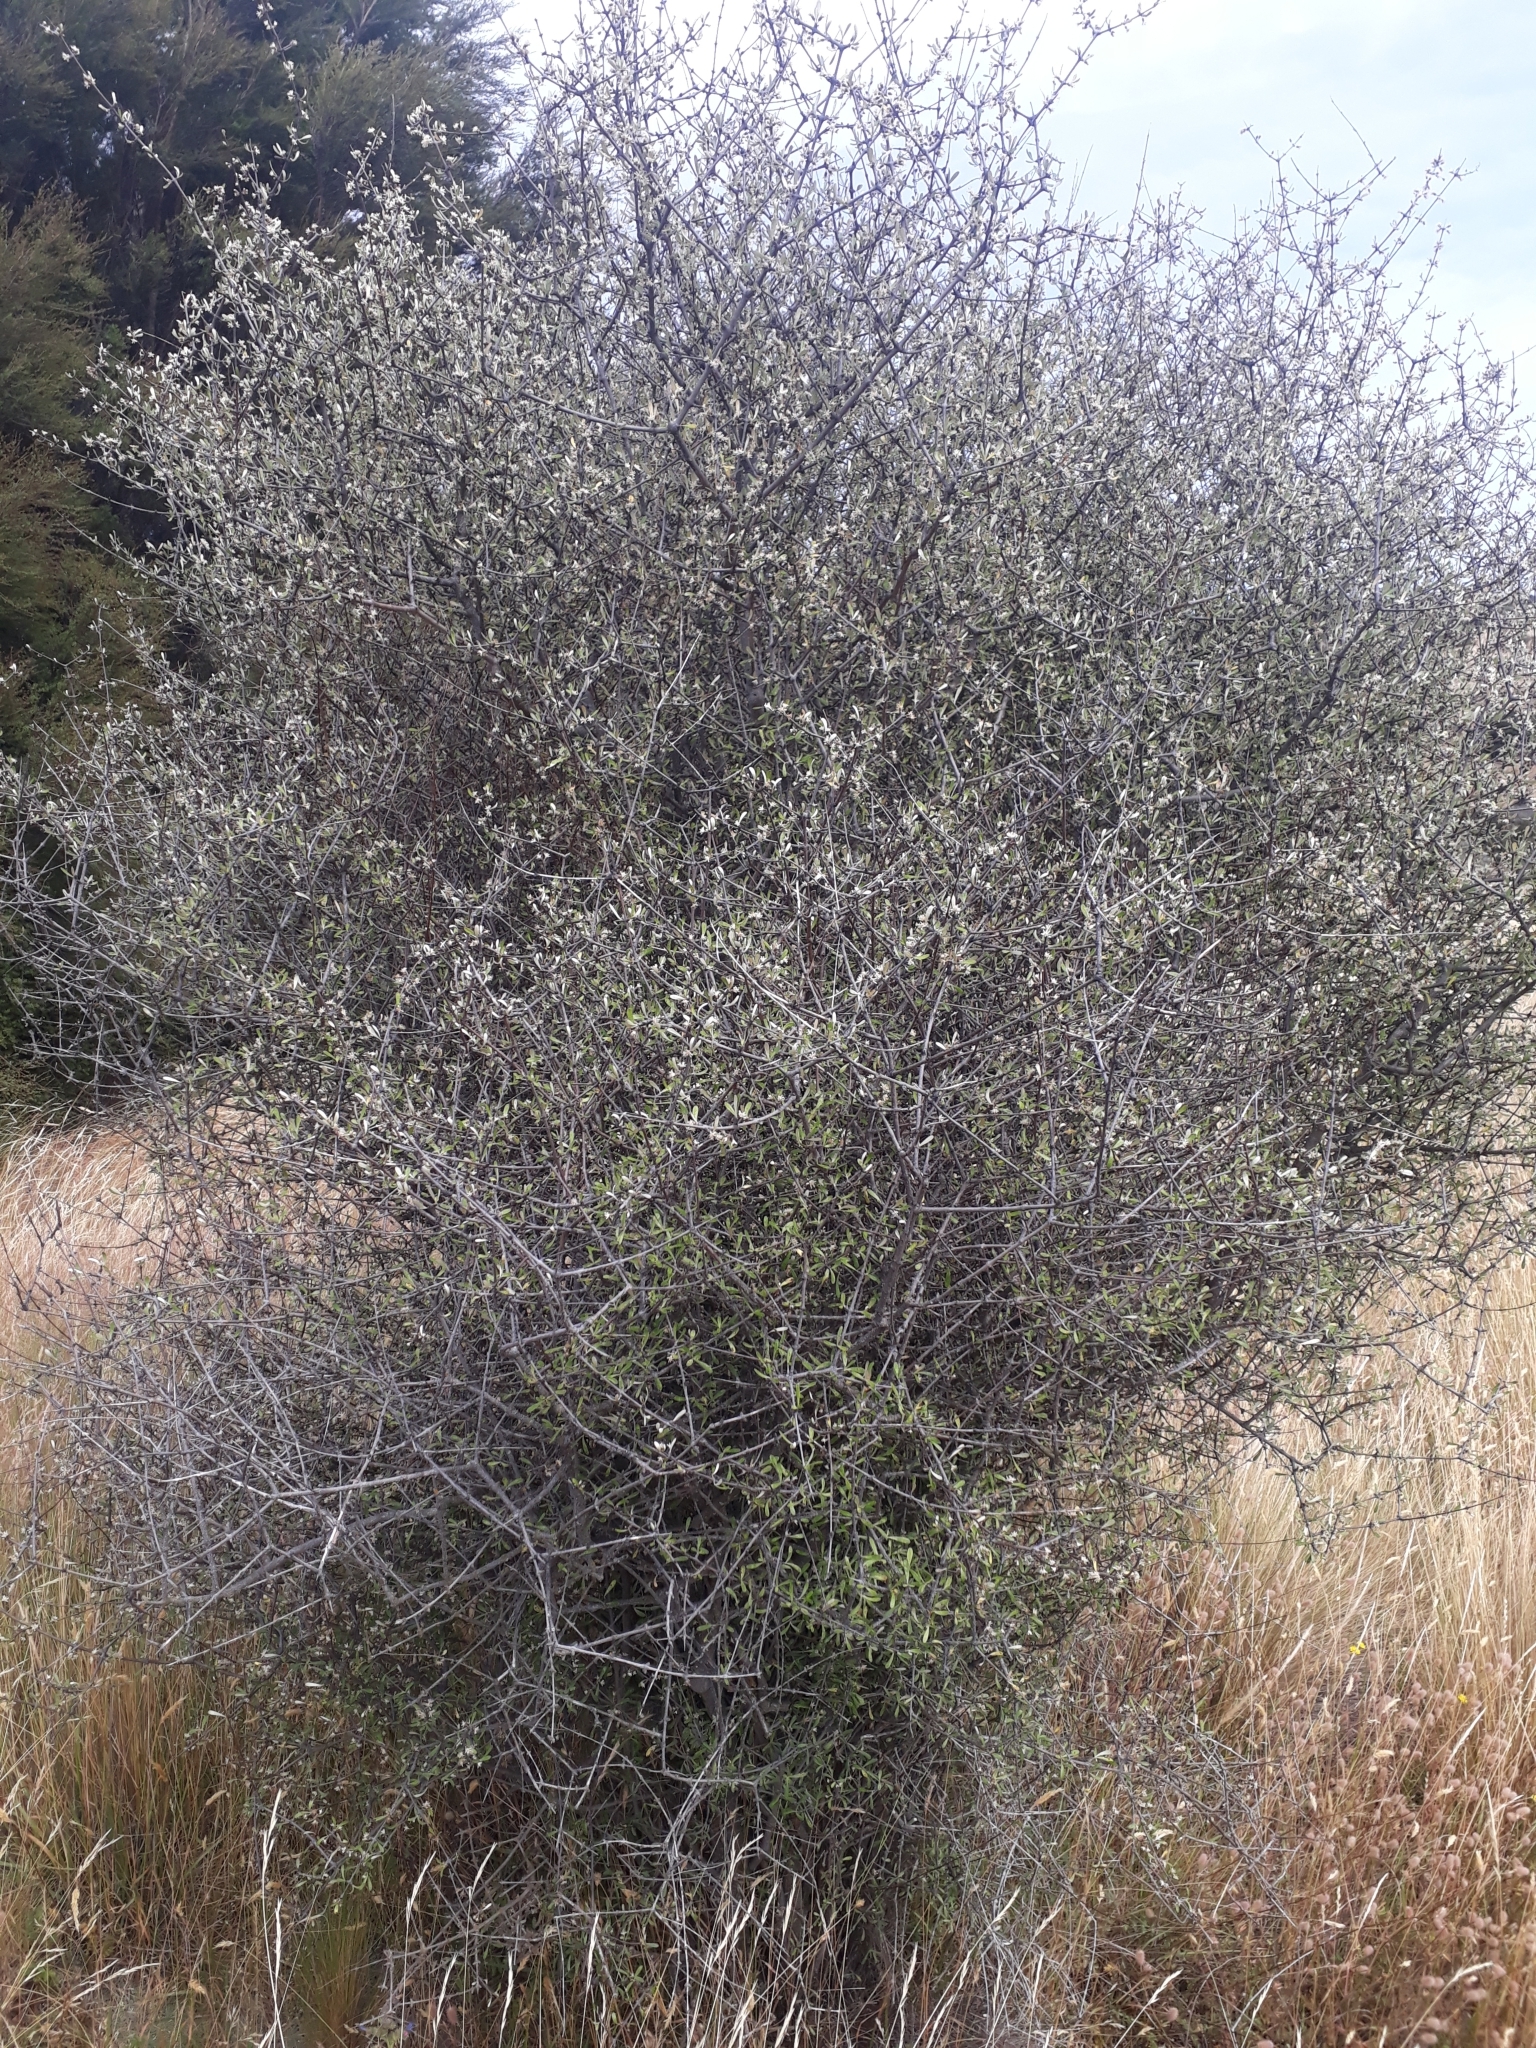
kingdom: Plantae
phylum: Tracheophyta
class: Magnoliopsida
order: Asterales
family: Asteraceae
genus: Olearia
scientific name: Olearia odorata
